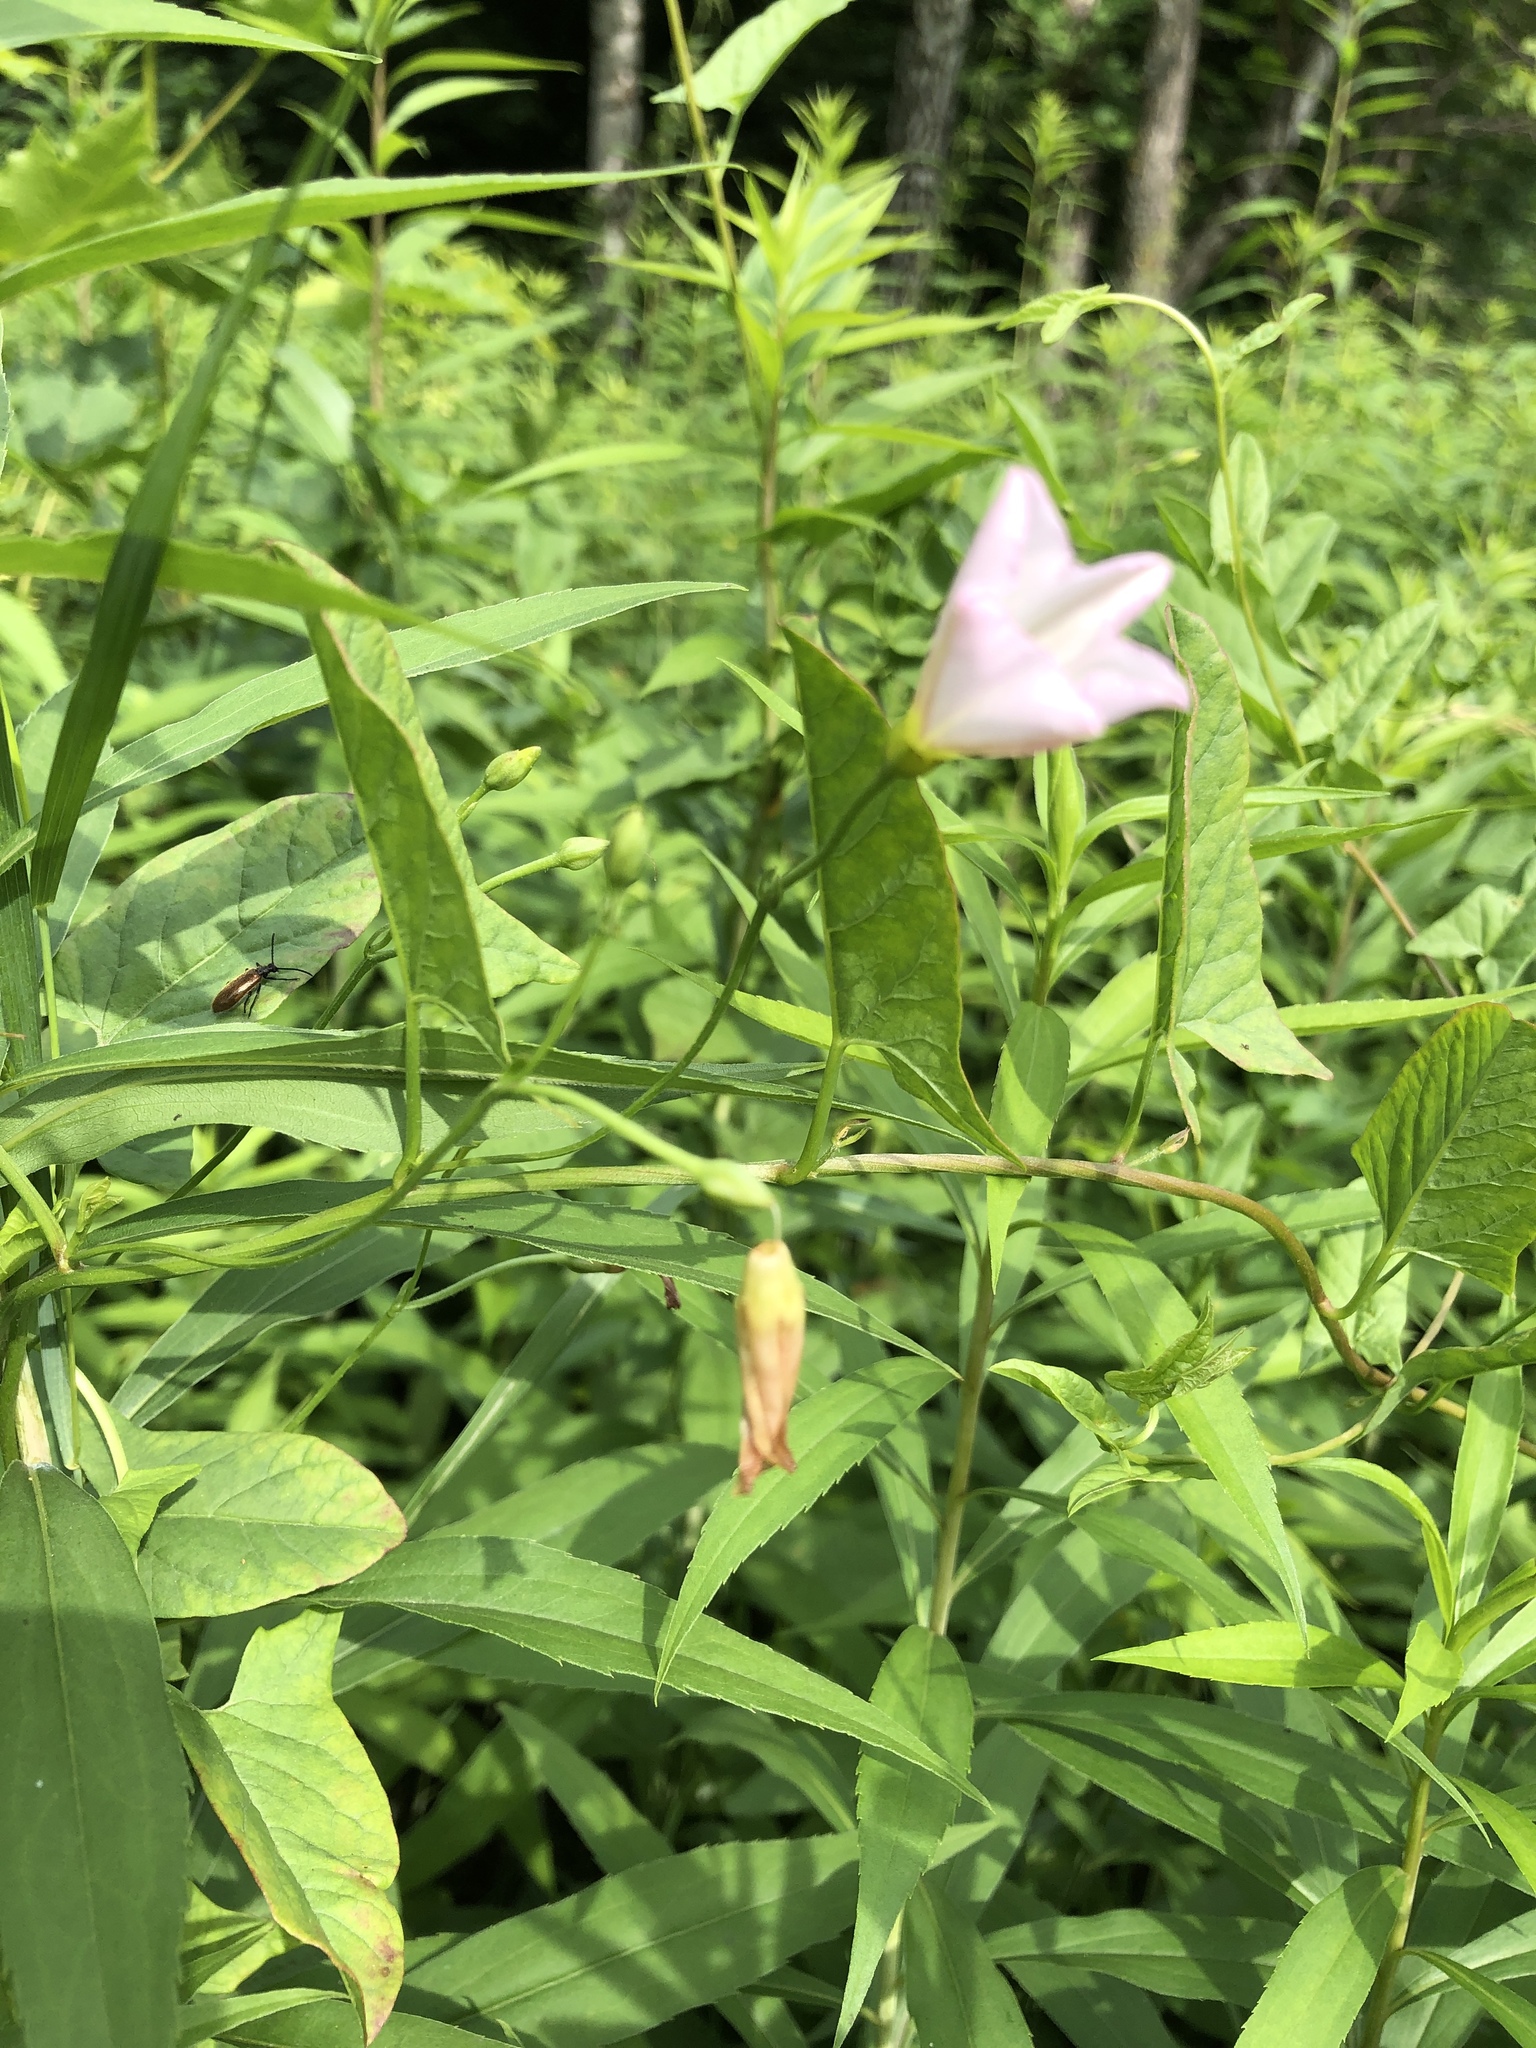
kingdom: Plantae
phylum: Tracheophyta
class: Magnoliopsida
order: Solanales
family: Convolvulaceae
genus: Convolvulus
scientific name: Convolvulus arvensis
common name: Field bindweed
